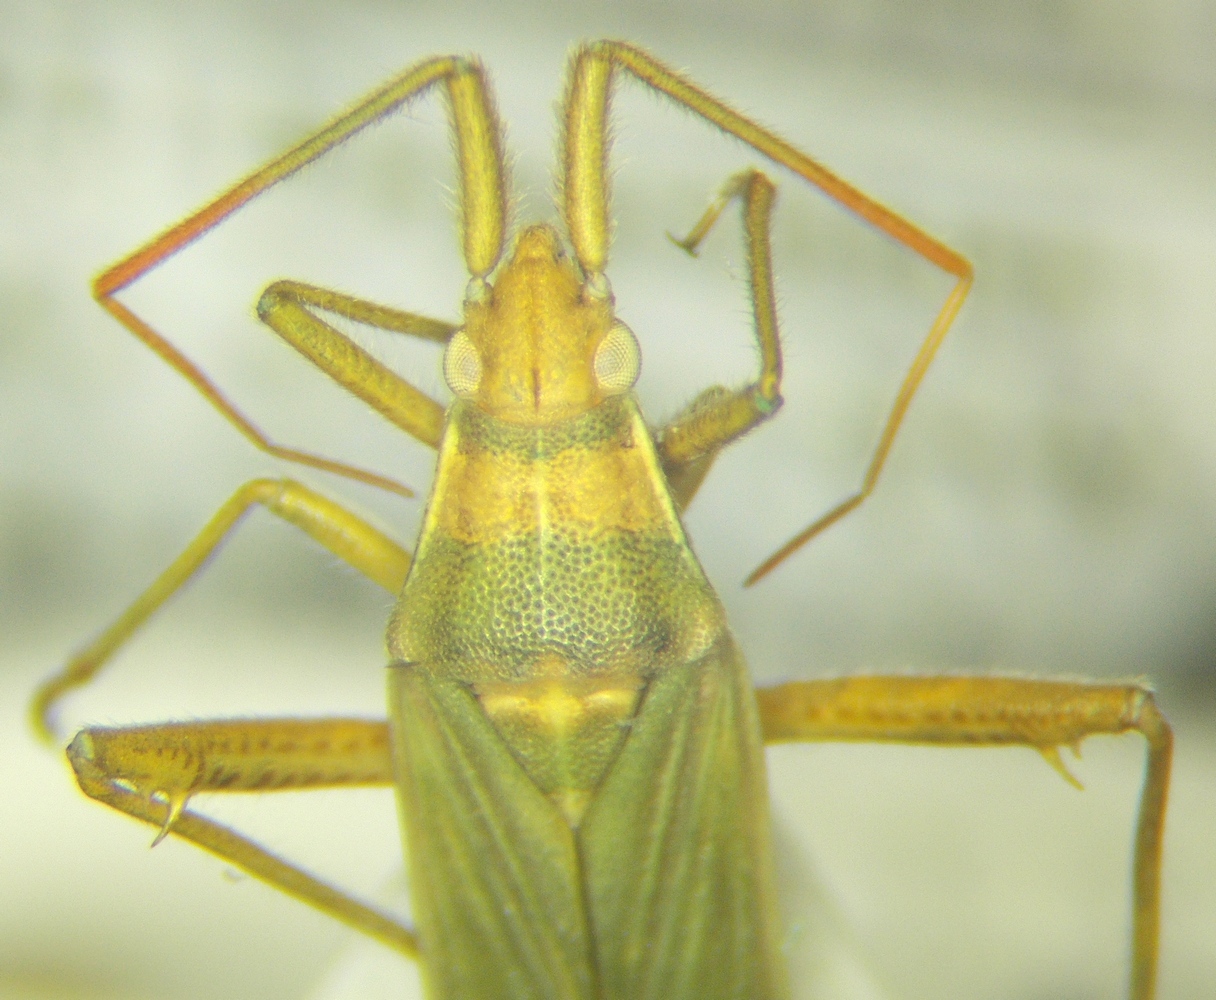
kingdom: Animalia
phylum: Arthropoda
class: Insecta
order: Hemiptera
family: Miridae
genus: Stenodema
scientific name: Stenodema calcarata
